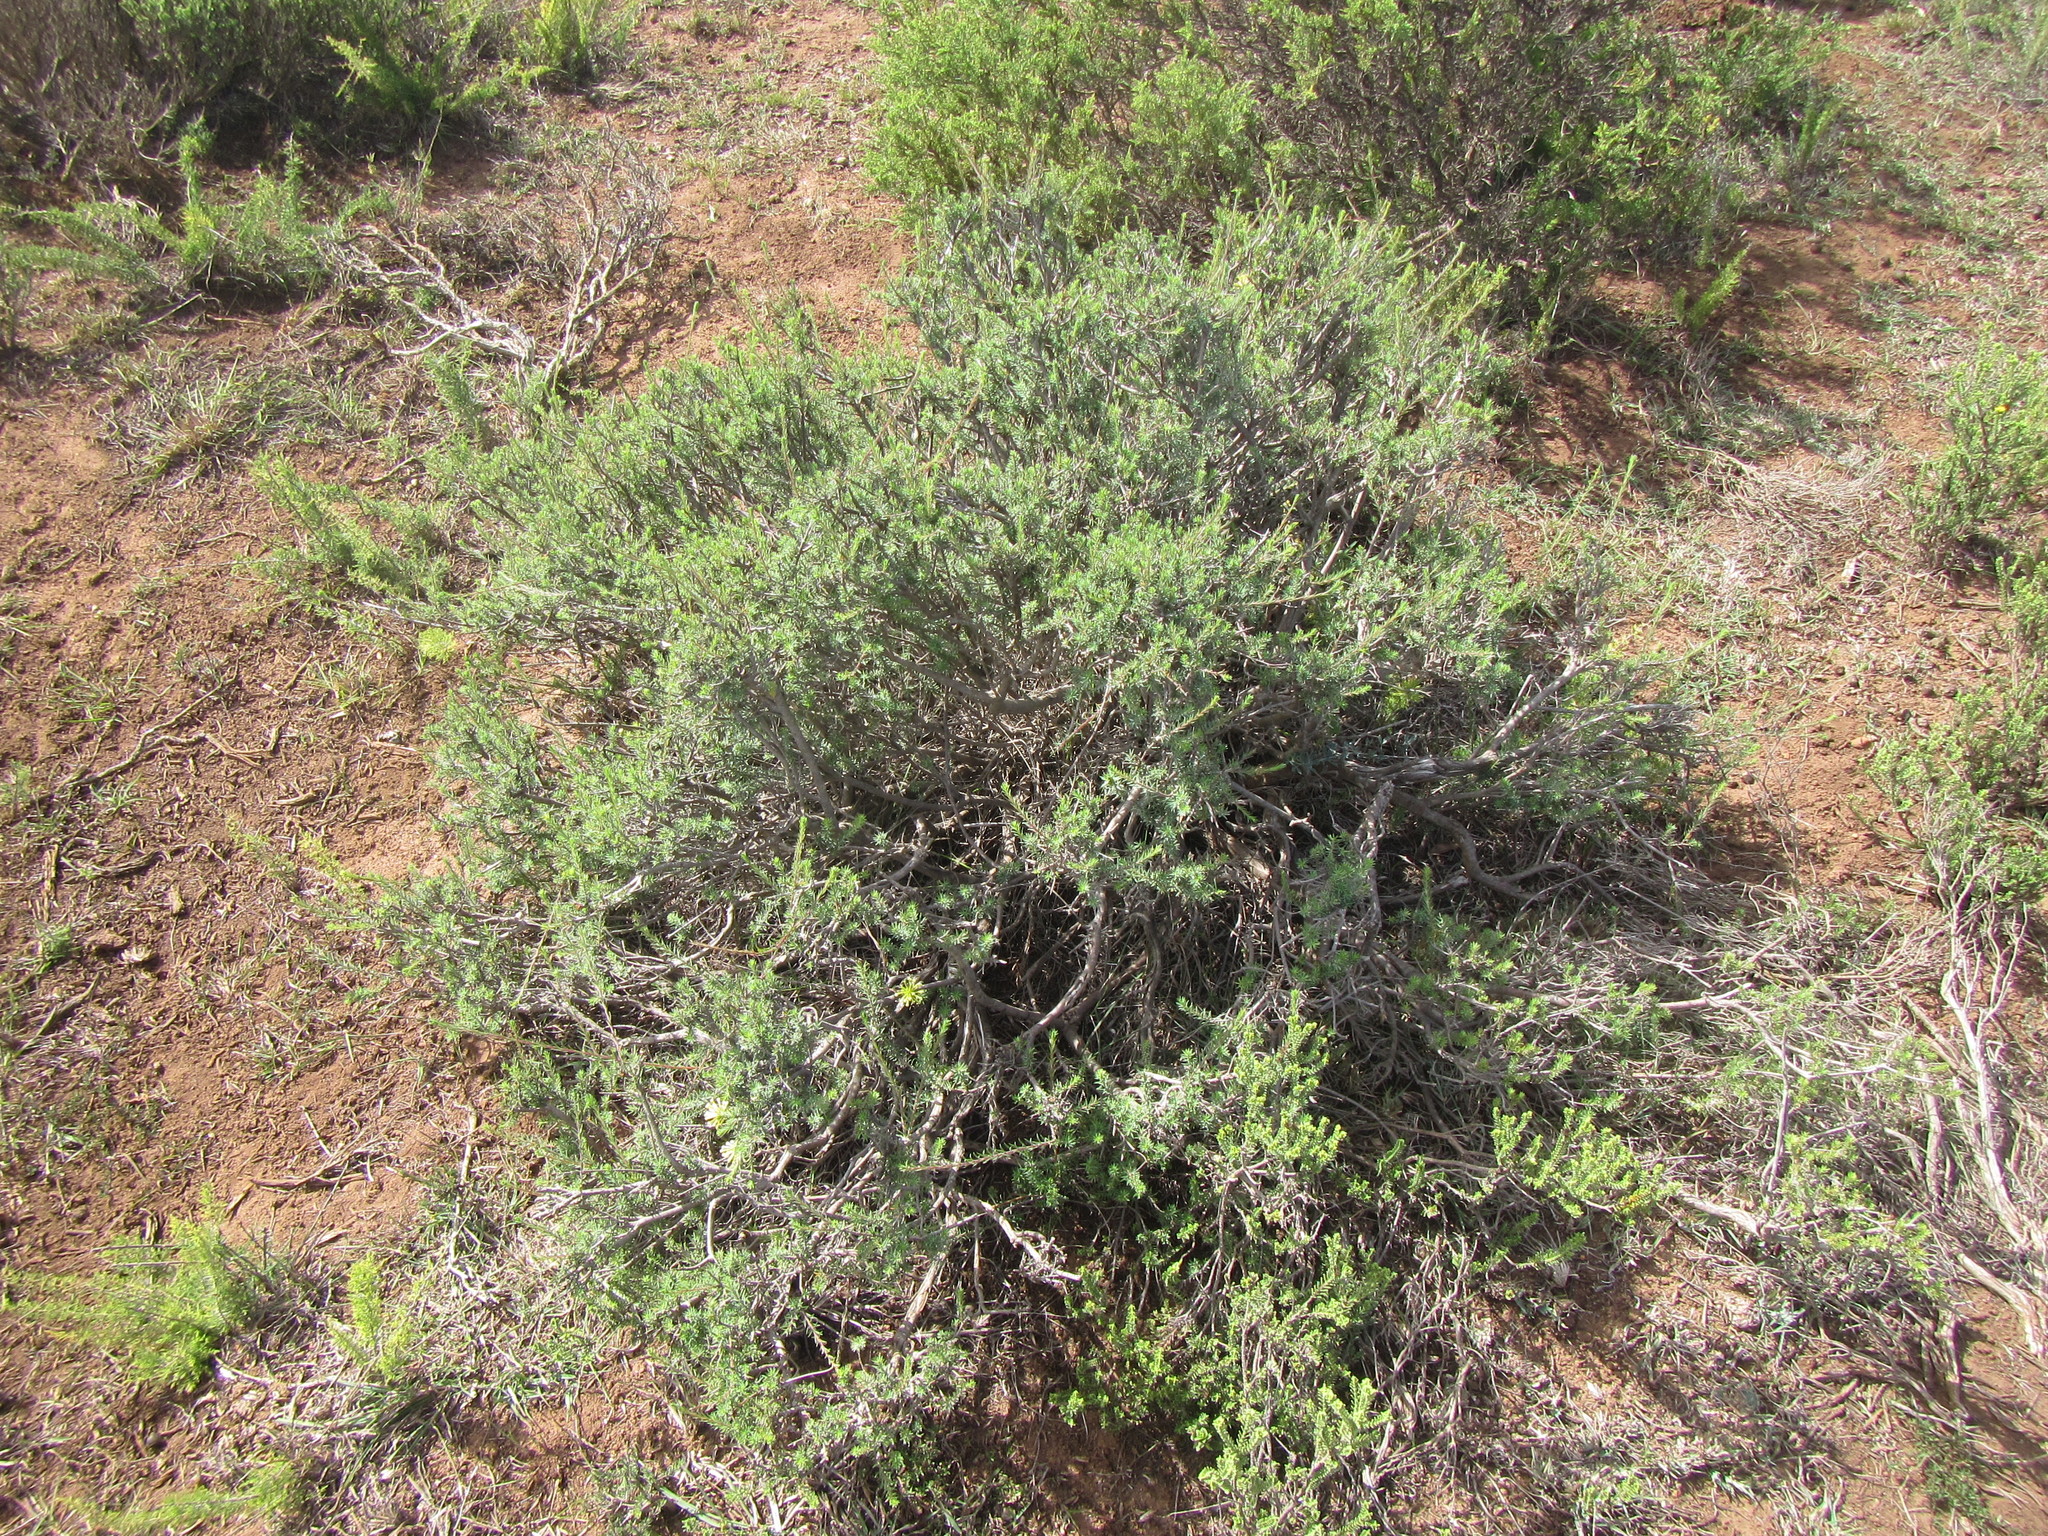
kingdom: Plantae
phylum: Tracheophyta
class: Magnoliopsida
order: Malvales
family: Thymelaeaceae
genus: Gnidia
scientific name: Gnidia squarrosa
